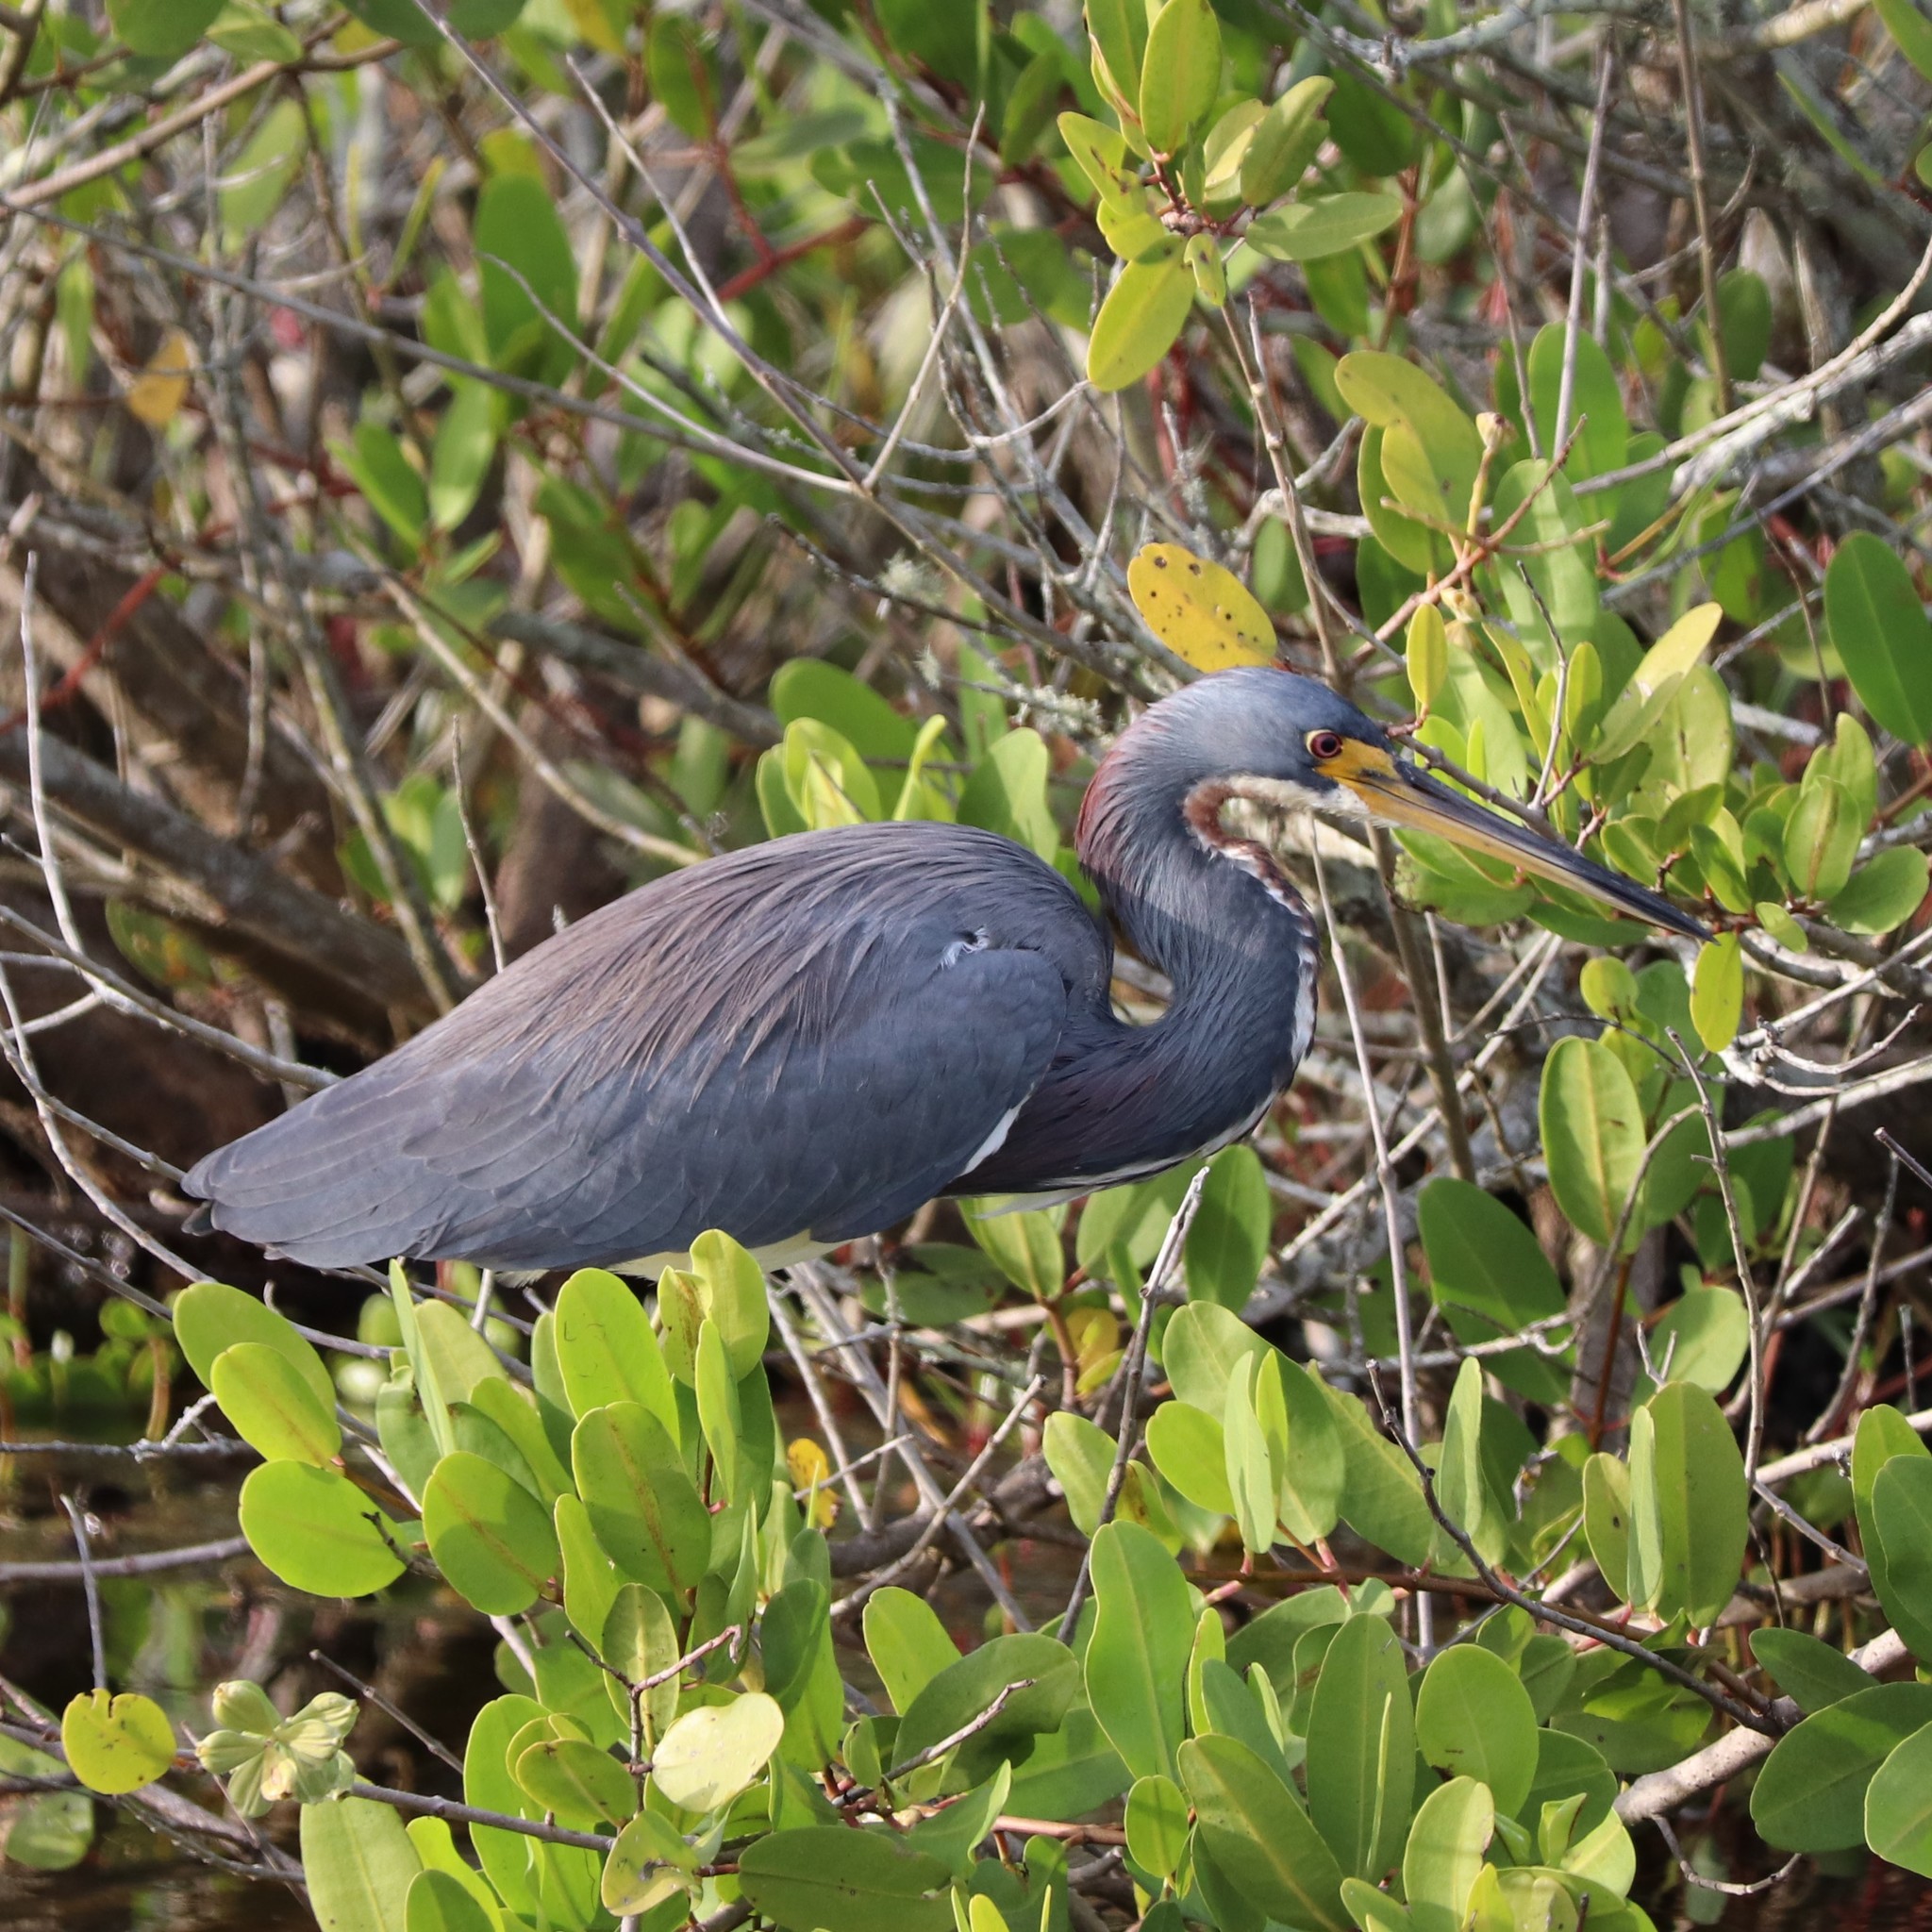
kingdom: Animalia
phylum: Chordata
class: Aves
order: Pelecaniformes
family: Ardeidae
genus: Egretta
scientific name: Egretta tricolor
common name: Tricolored heron
